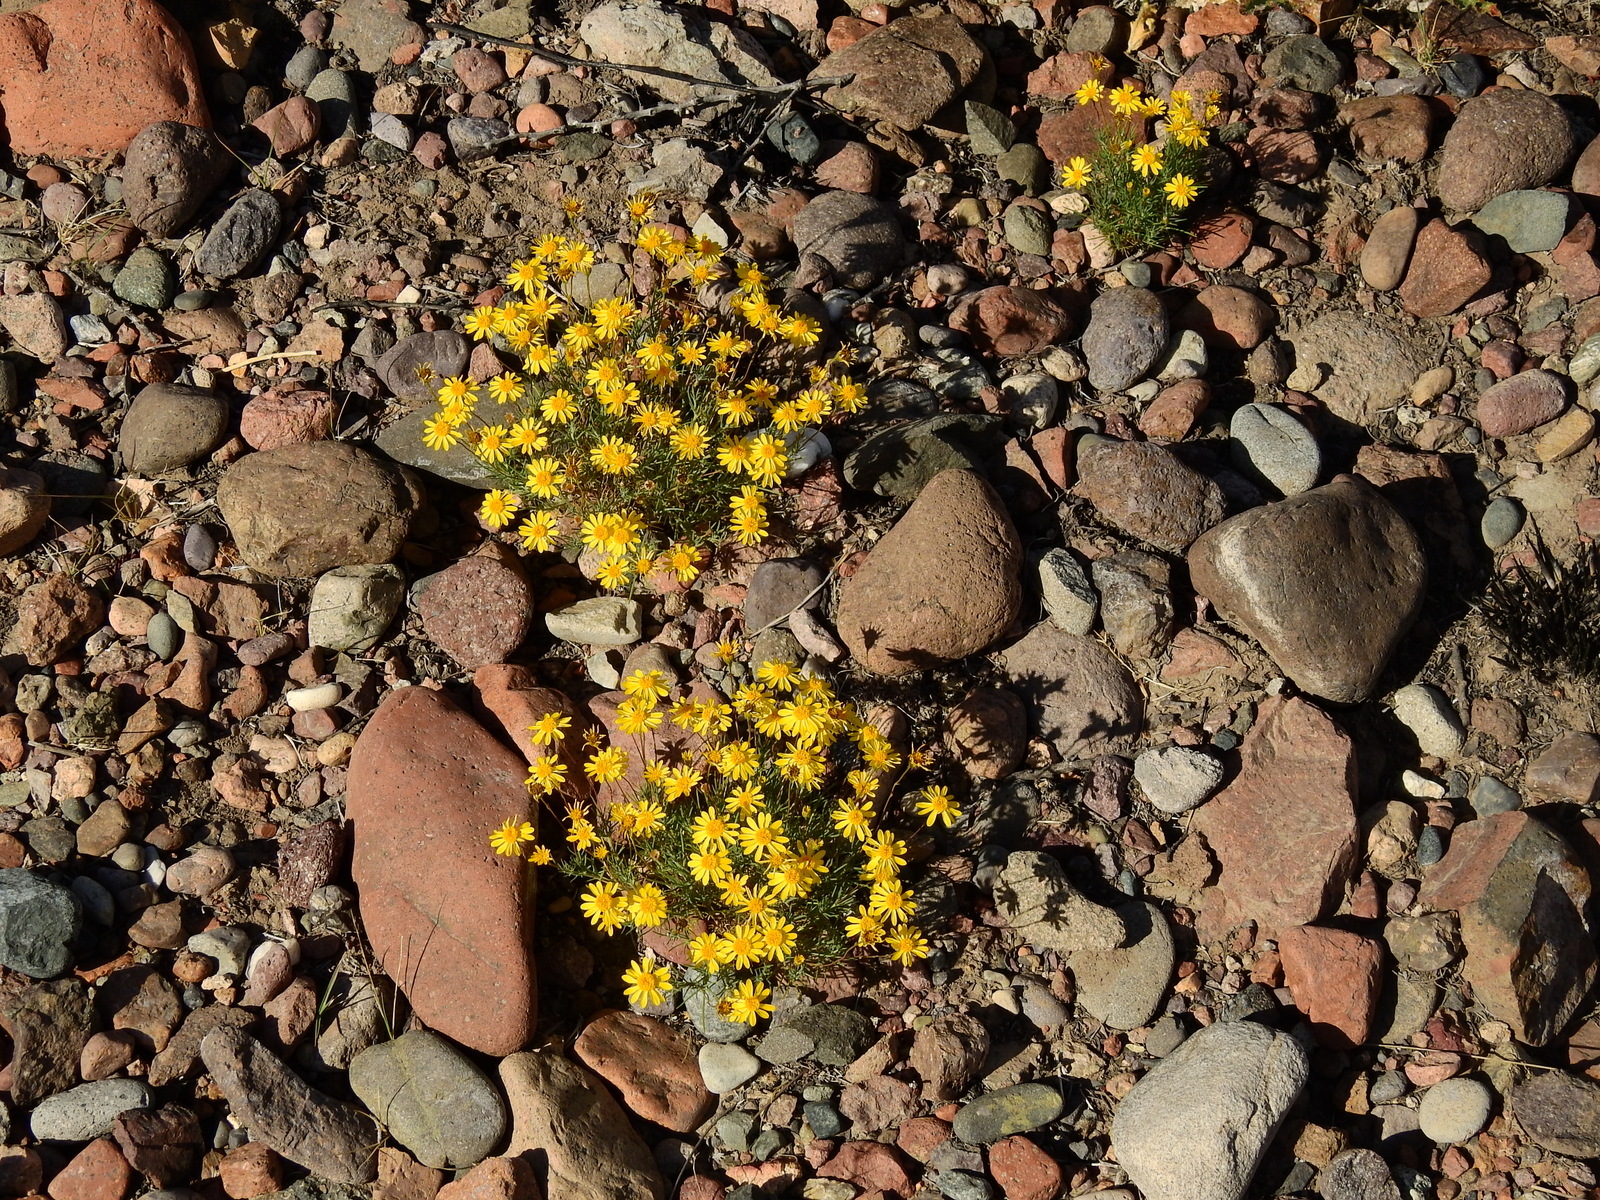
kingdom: Plantae
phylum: Tracheophyta
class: Magnoliopsida
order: Asterales
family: Asteraceae
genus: Thymophylla
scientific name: Thymophylla pentachaeta
